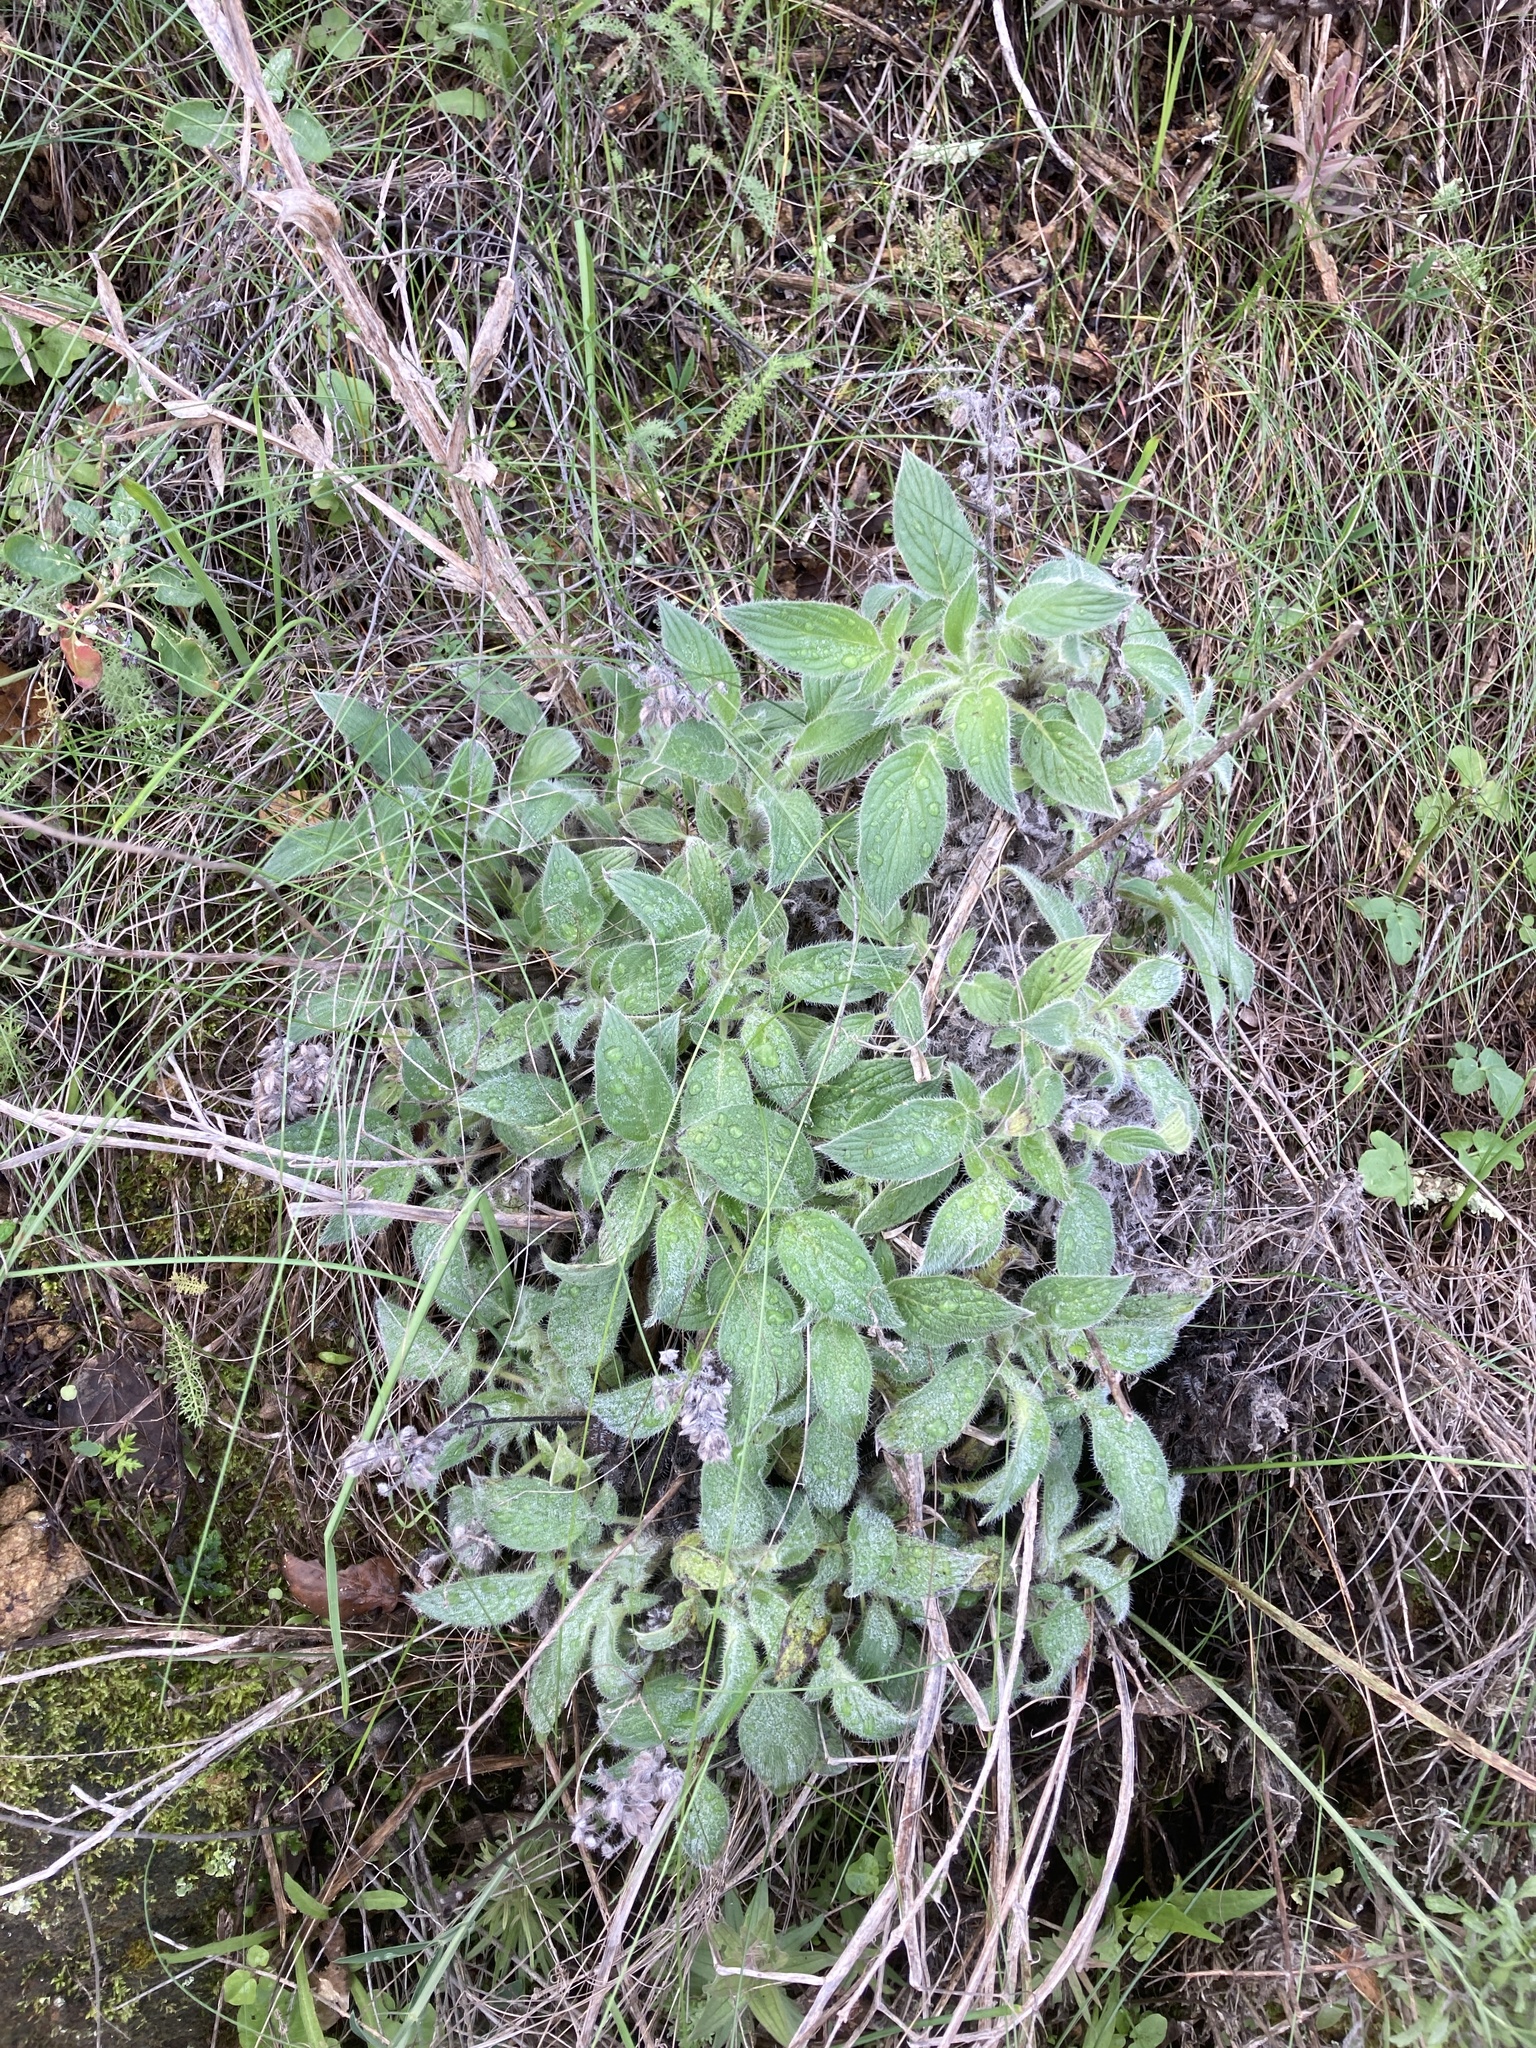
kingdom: Plantae
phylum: Tracheophyta
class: Magnoliopsida
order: Boraginales
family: Hydrophyllaceae
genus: Phacelia
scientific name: Phacelia imbricata
